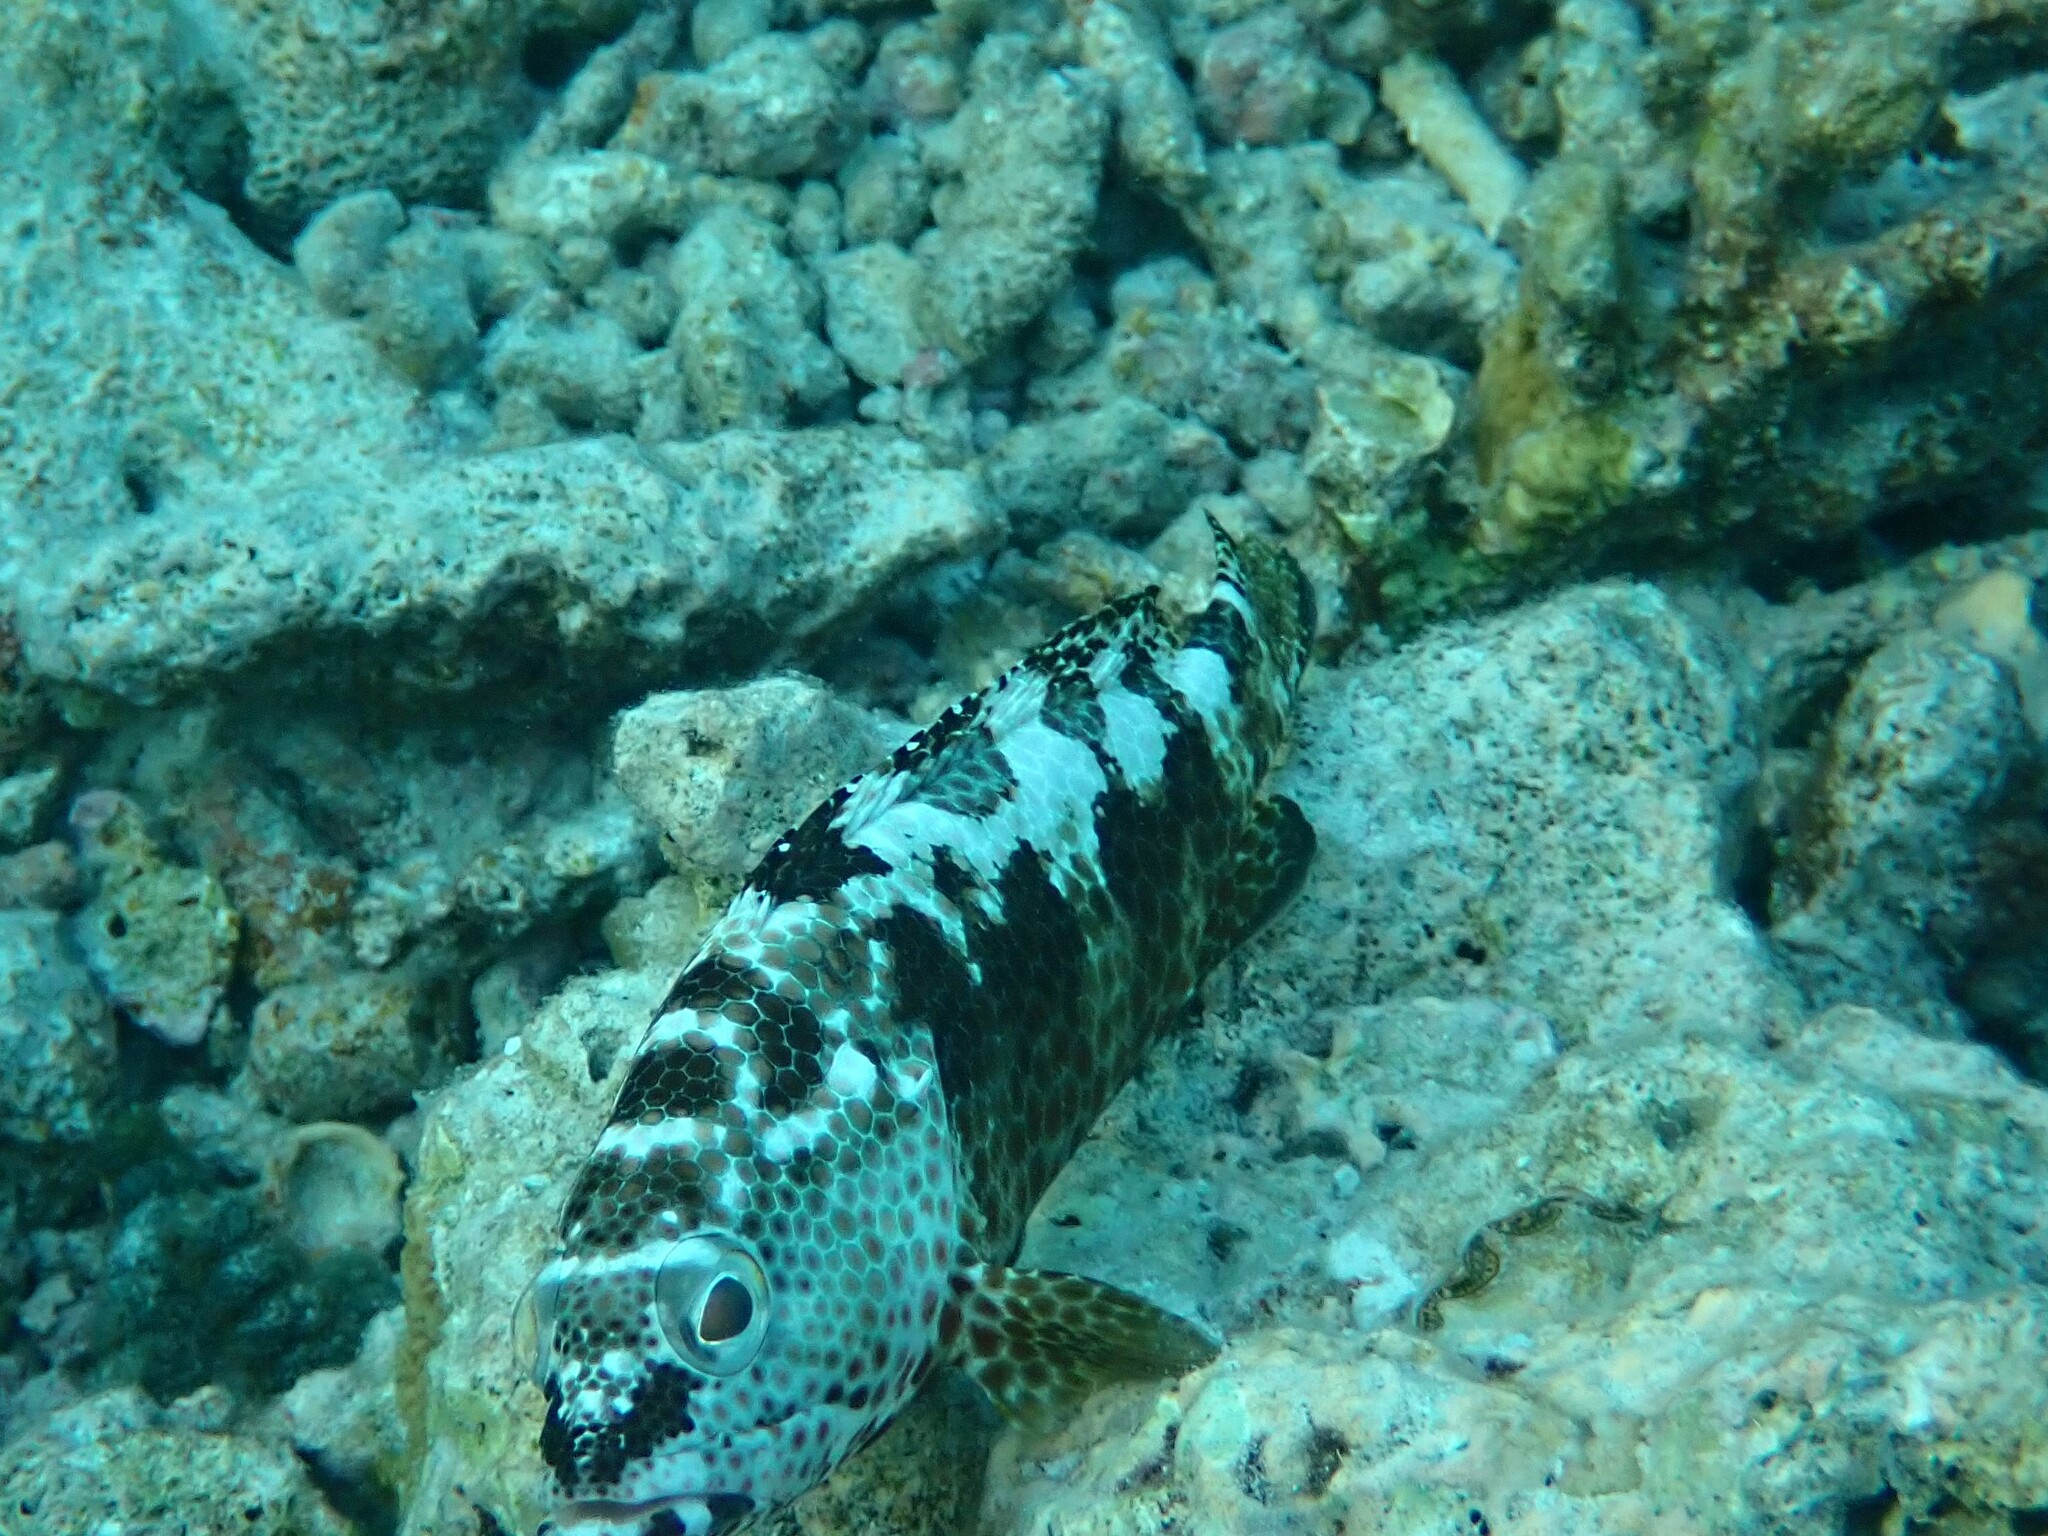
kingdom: Animalia
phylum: Chordata
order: Perciformes
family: Serranidae
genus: Epinephelus
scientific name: Epinephelus spilotoceps
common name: Foursaddle grouper
